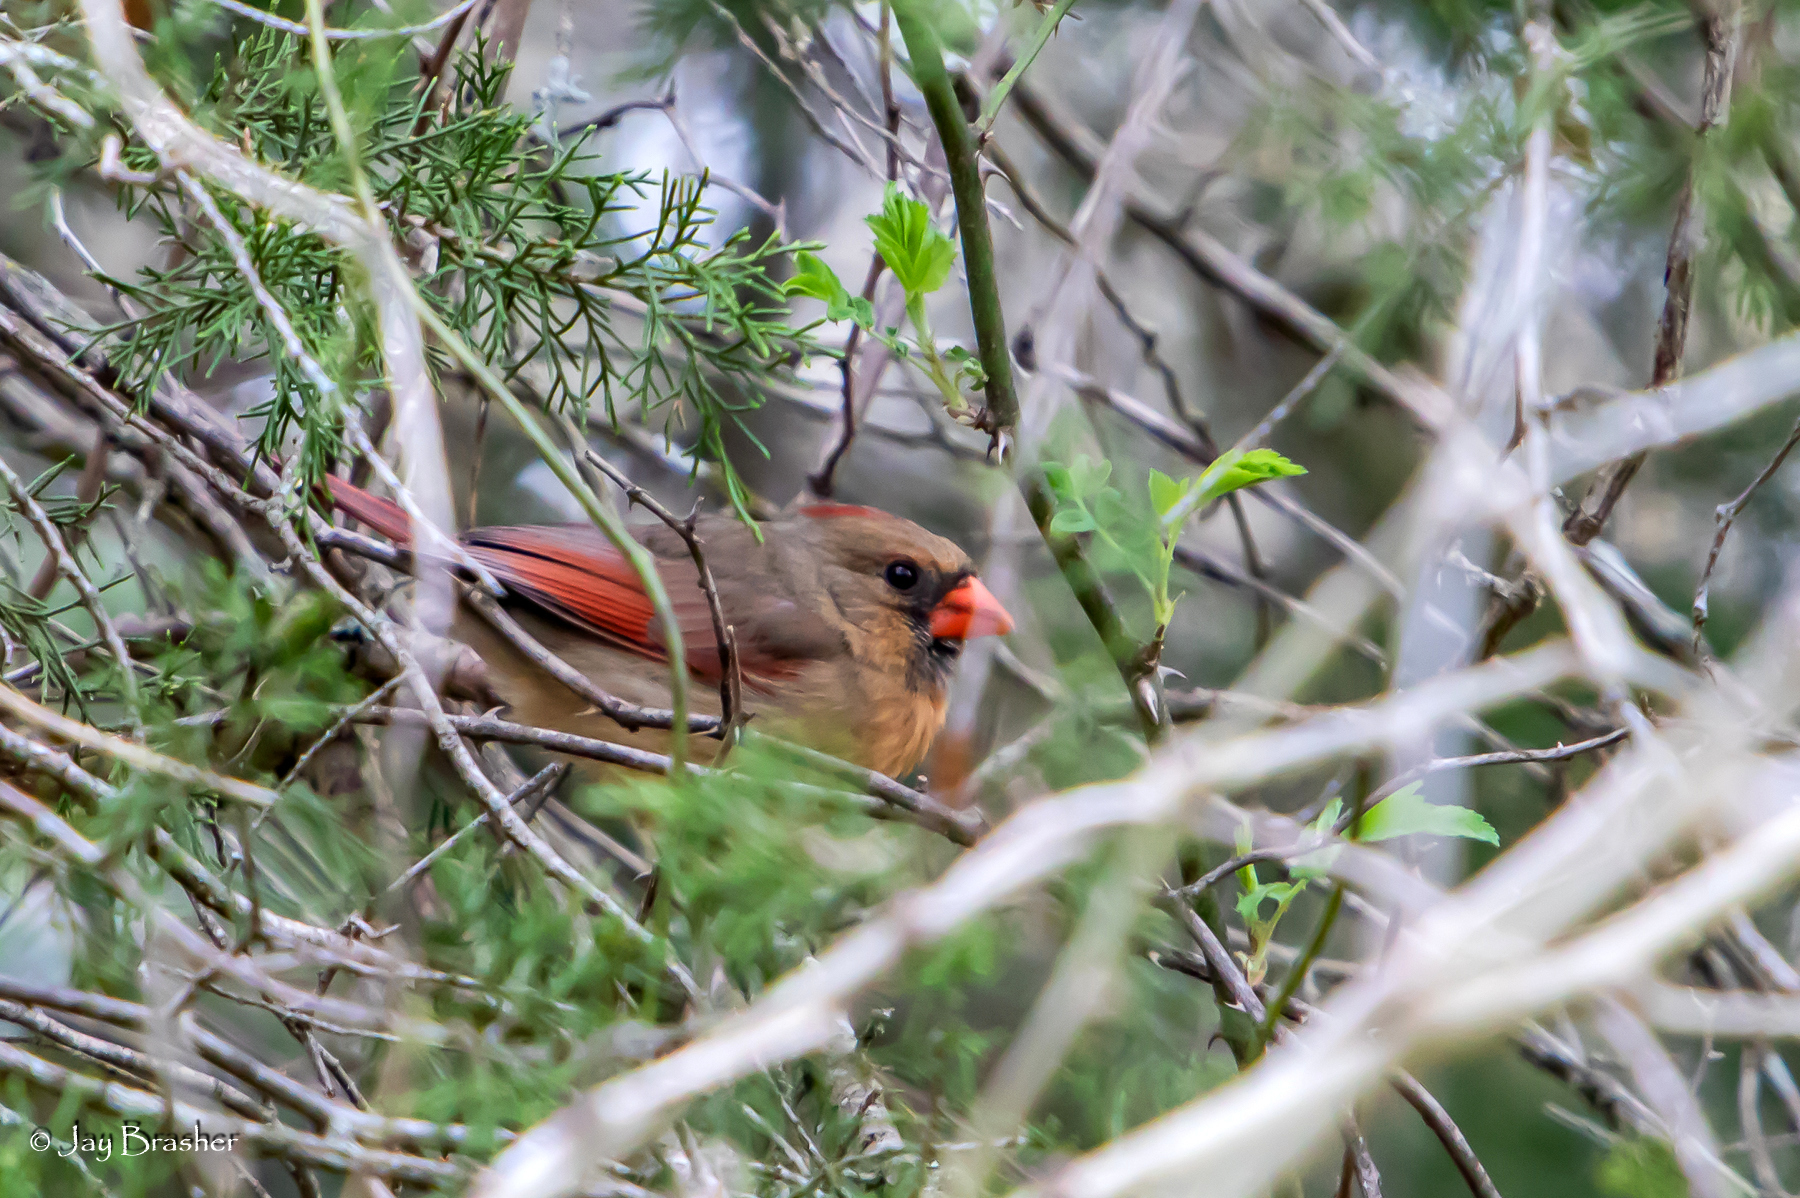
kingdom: Animalia
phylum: Chordata
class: Aves
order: Passeriformes
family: Cardinalidae
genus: Cardinalis
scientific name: Cardinalis cardinalis
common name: Northern cardinal
